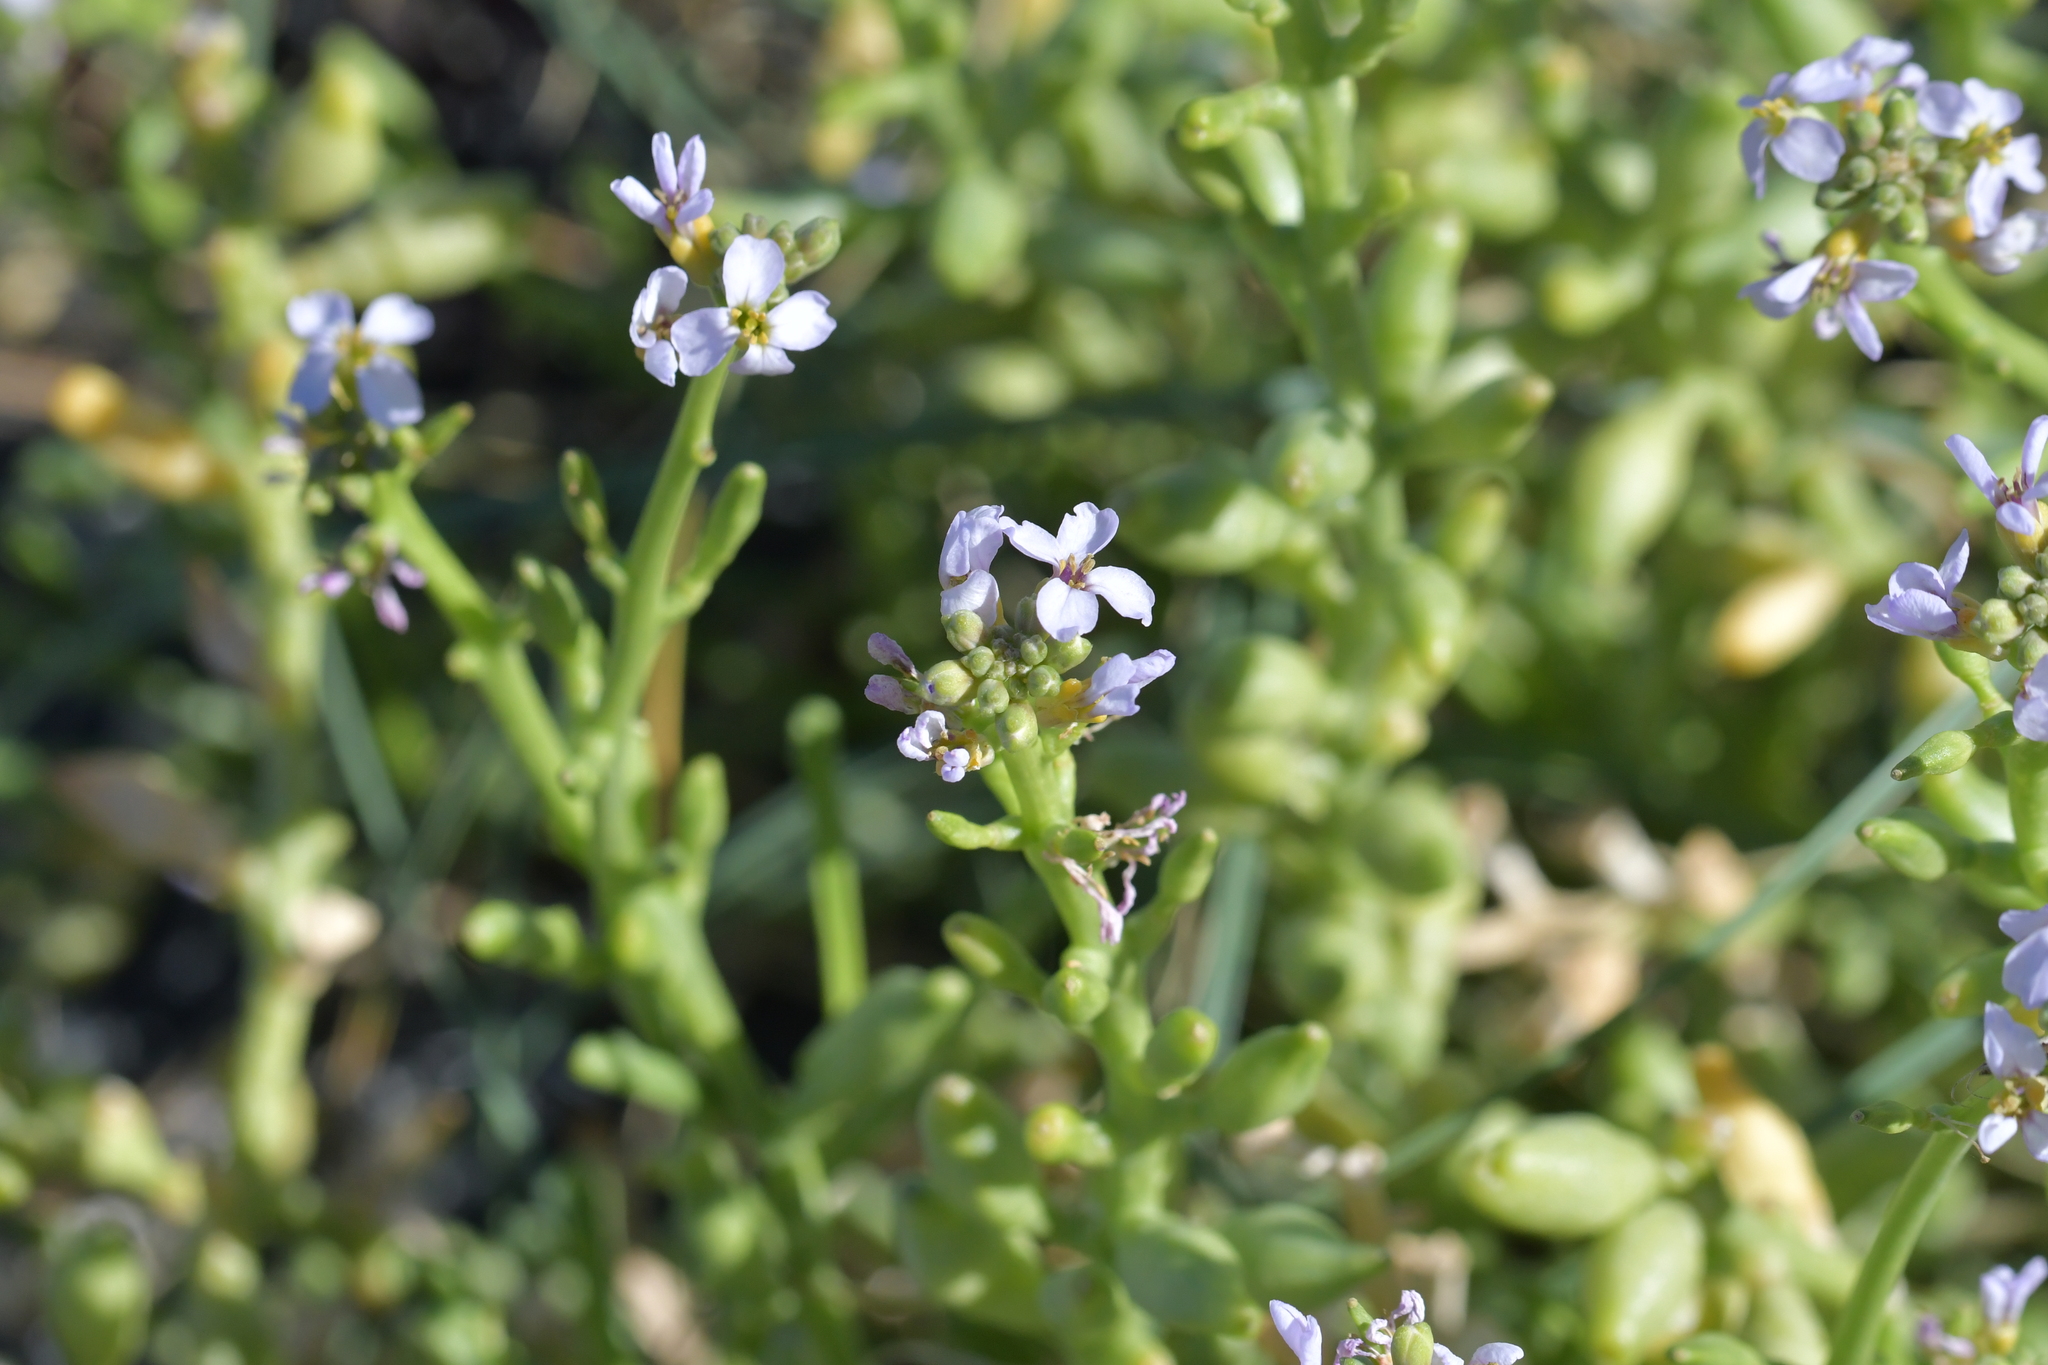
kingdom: Plantae
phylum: Tracheophyta
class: Magnoliopsida
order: Brassicales
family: Brassicaceae
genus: Cakile
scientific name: Cakile maritima
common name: Sea rocket
